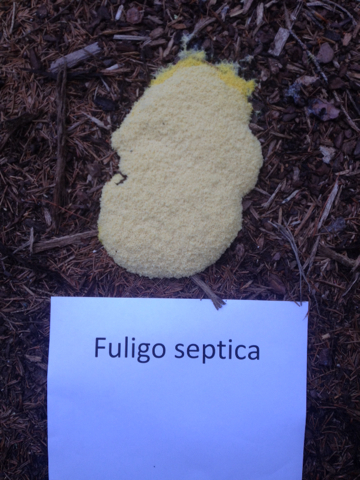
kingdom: Protozoa
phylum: Mycetozoa
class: Myxomycetes
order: Physarales
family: Physaraceae
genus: Fuligo
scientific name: Fuligo septica
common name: Dog vomit slime mold
